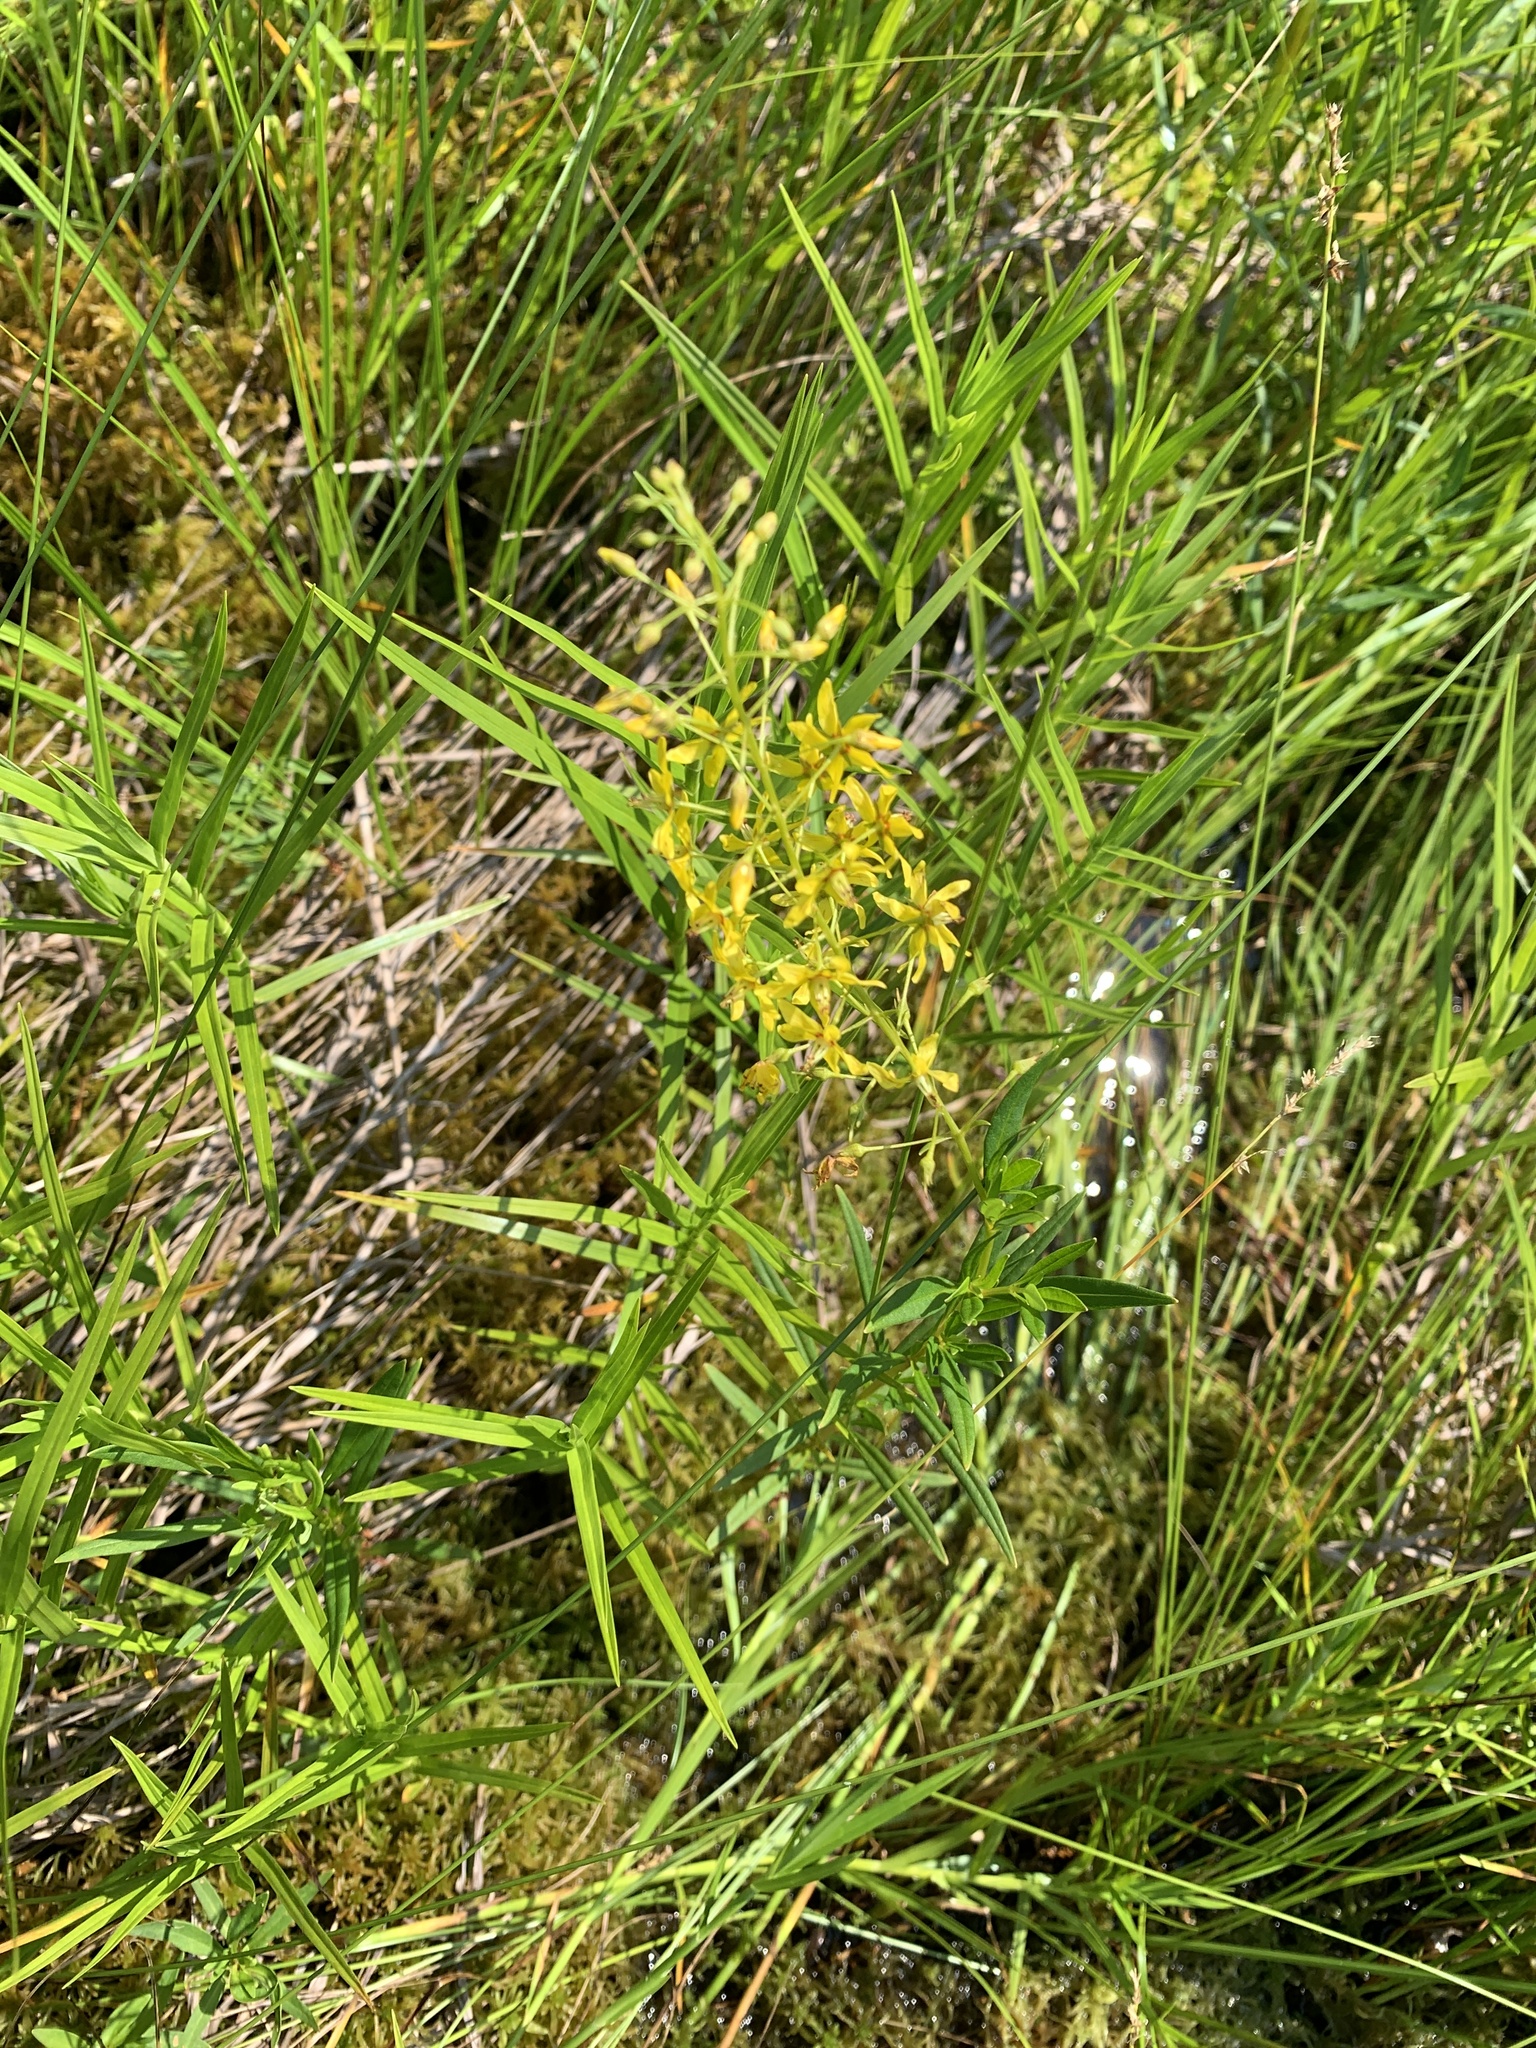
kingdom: Plantae
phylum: Tracheophyta
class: Magnoliopsida
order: Ericales
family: Primulaceae
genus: Lysimachia
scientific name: Lysimachia terrestris
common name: Lake loosestrife
